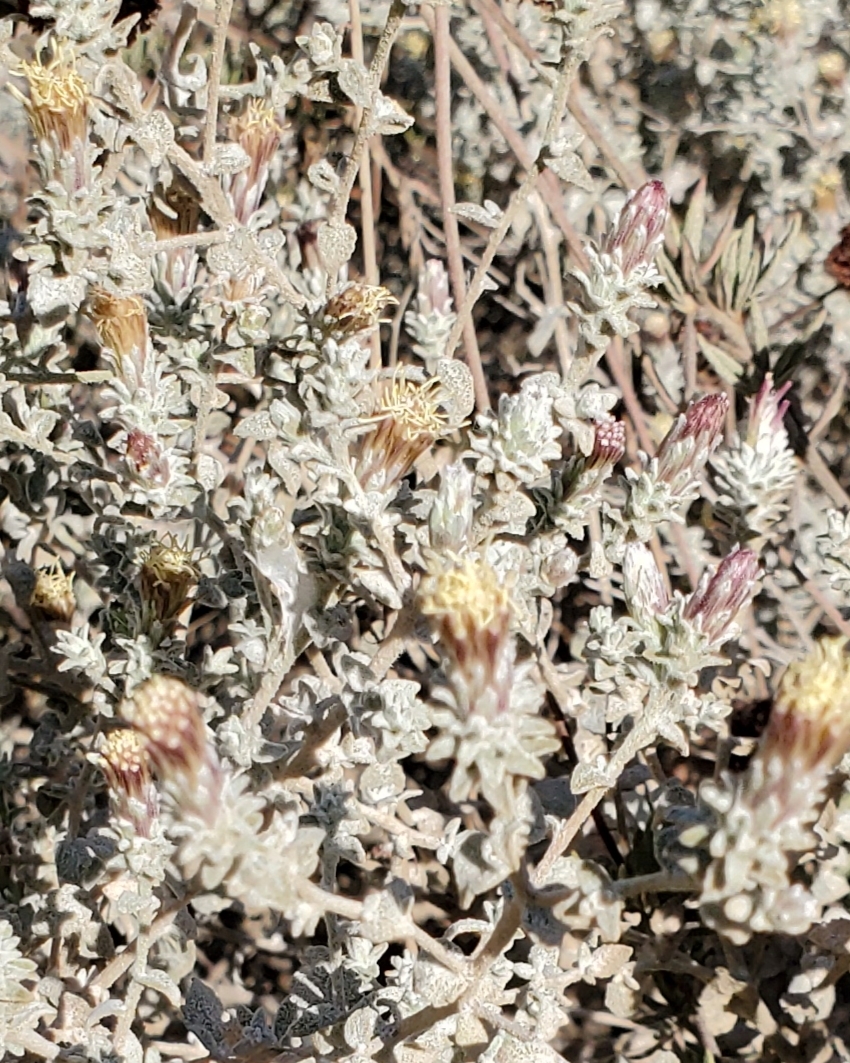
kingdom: Plantae
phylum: Tracheophyta
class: Magnoliopsida
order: Asterales
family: Asteraceae
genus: Brickellia
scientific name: Brickellia nevinii
